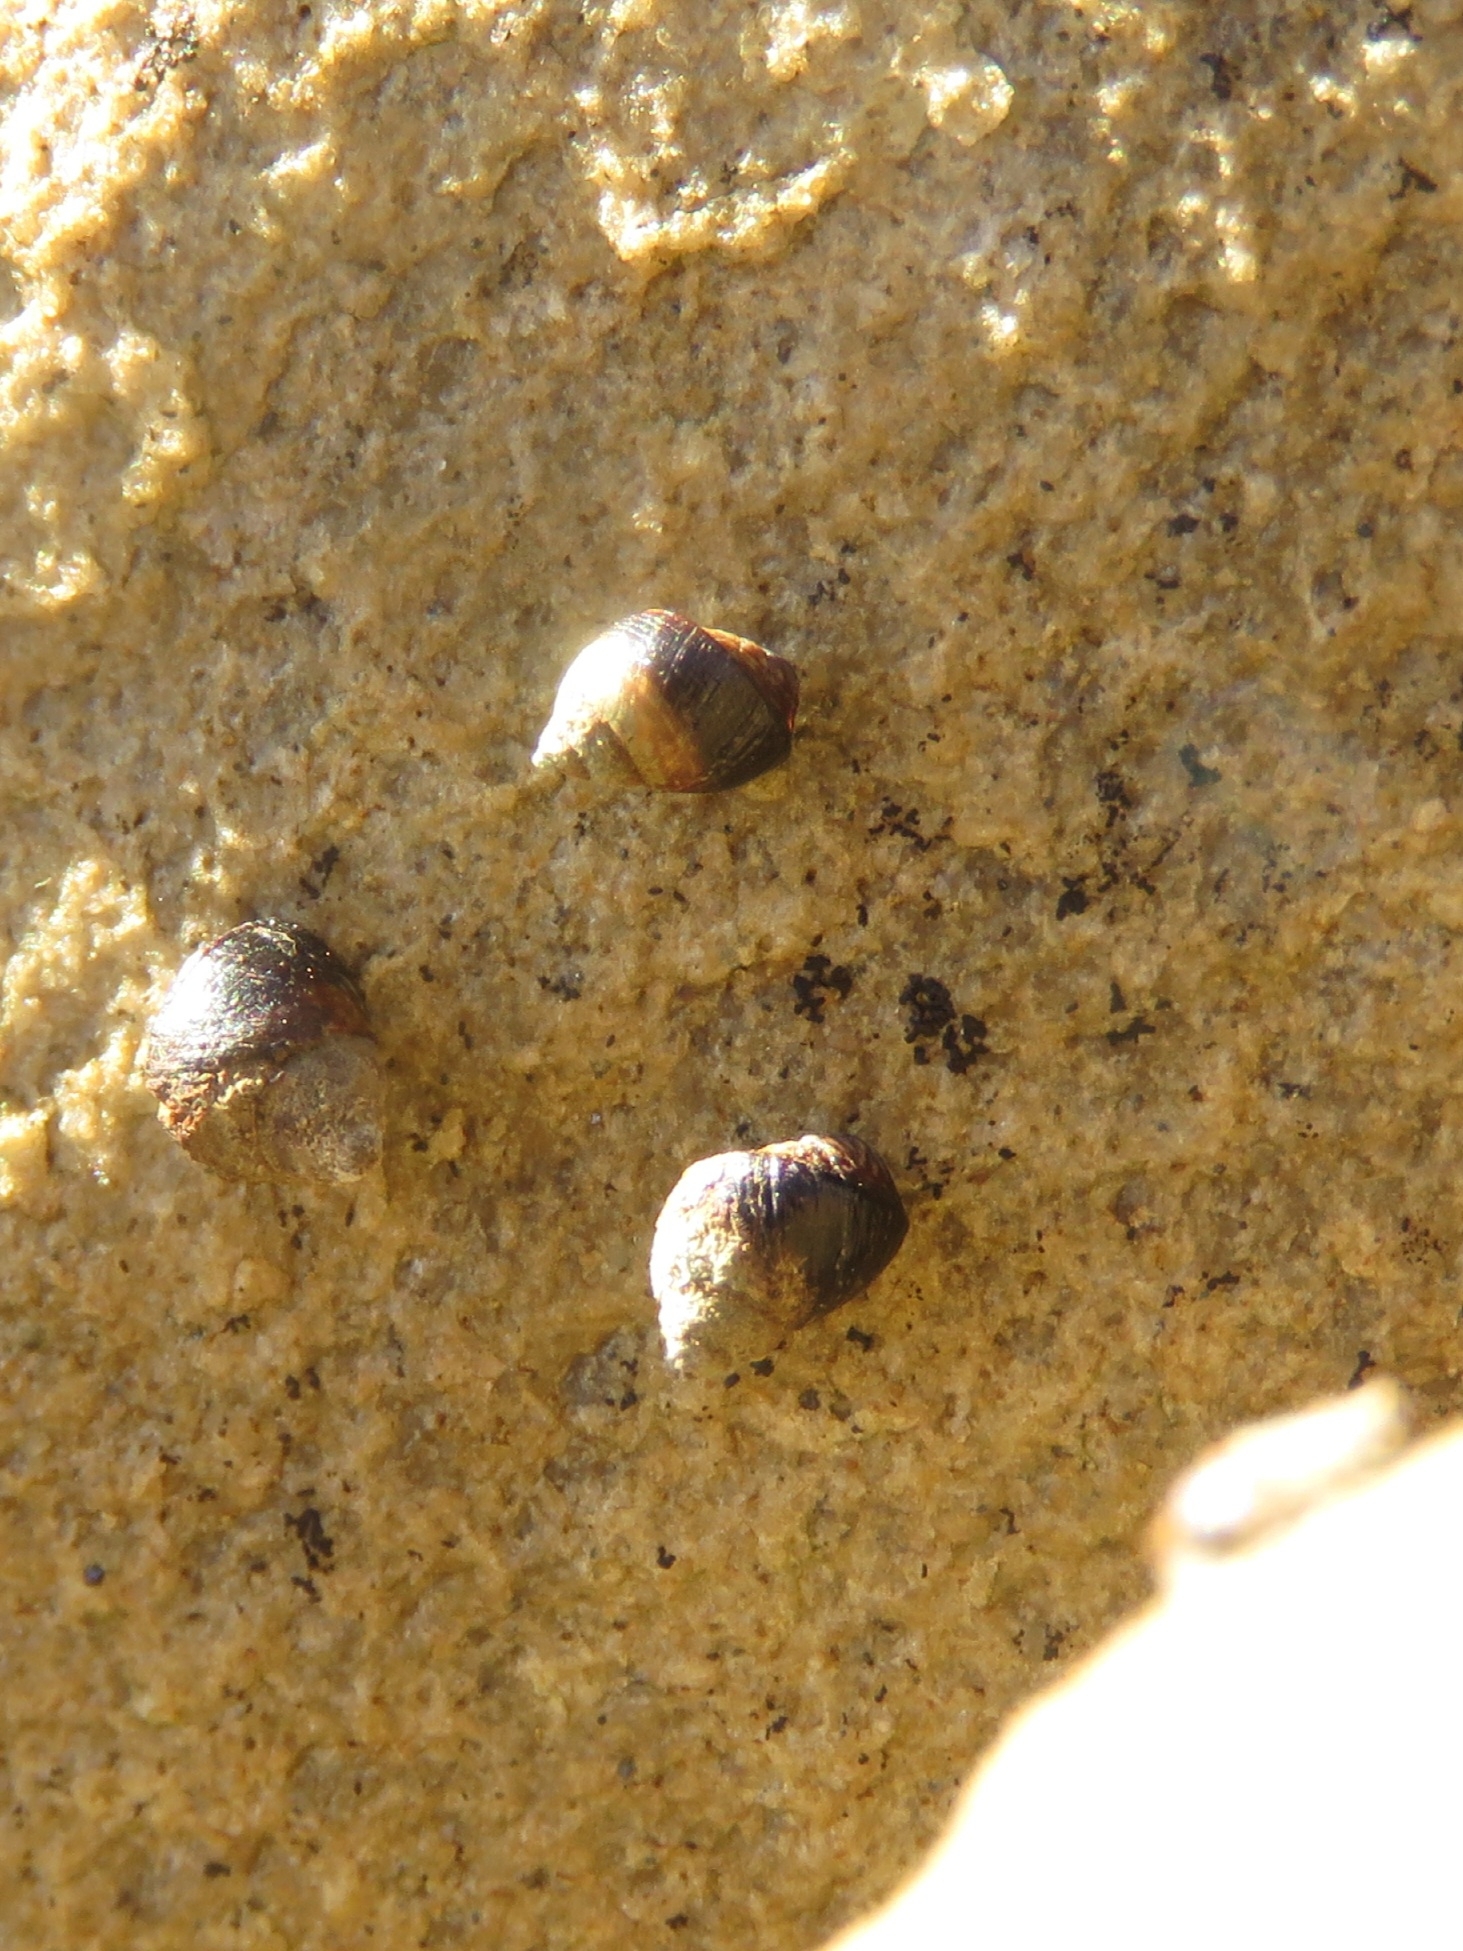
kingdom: Animalia
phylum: Mollusca
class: Gastropoda
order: Littorinimorpha
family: Littorinidae
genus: Afrolittorina
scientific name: Afrolittorina knysnaensis
